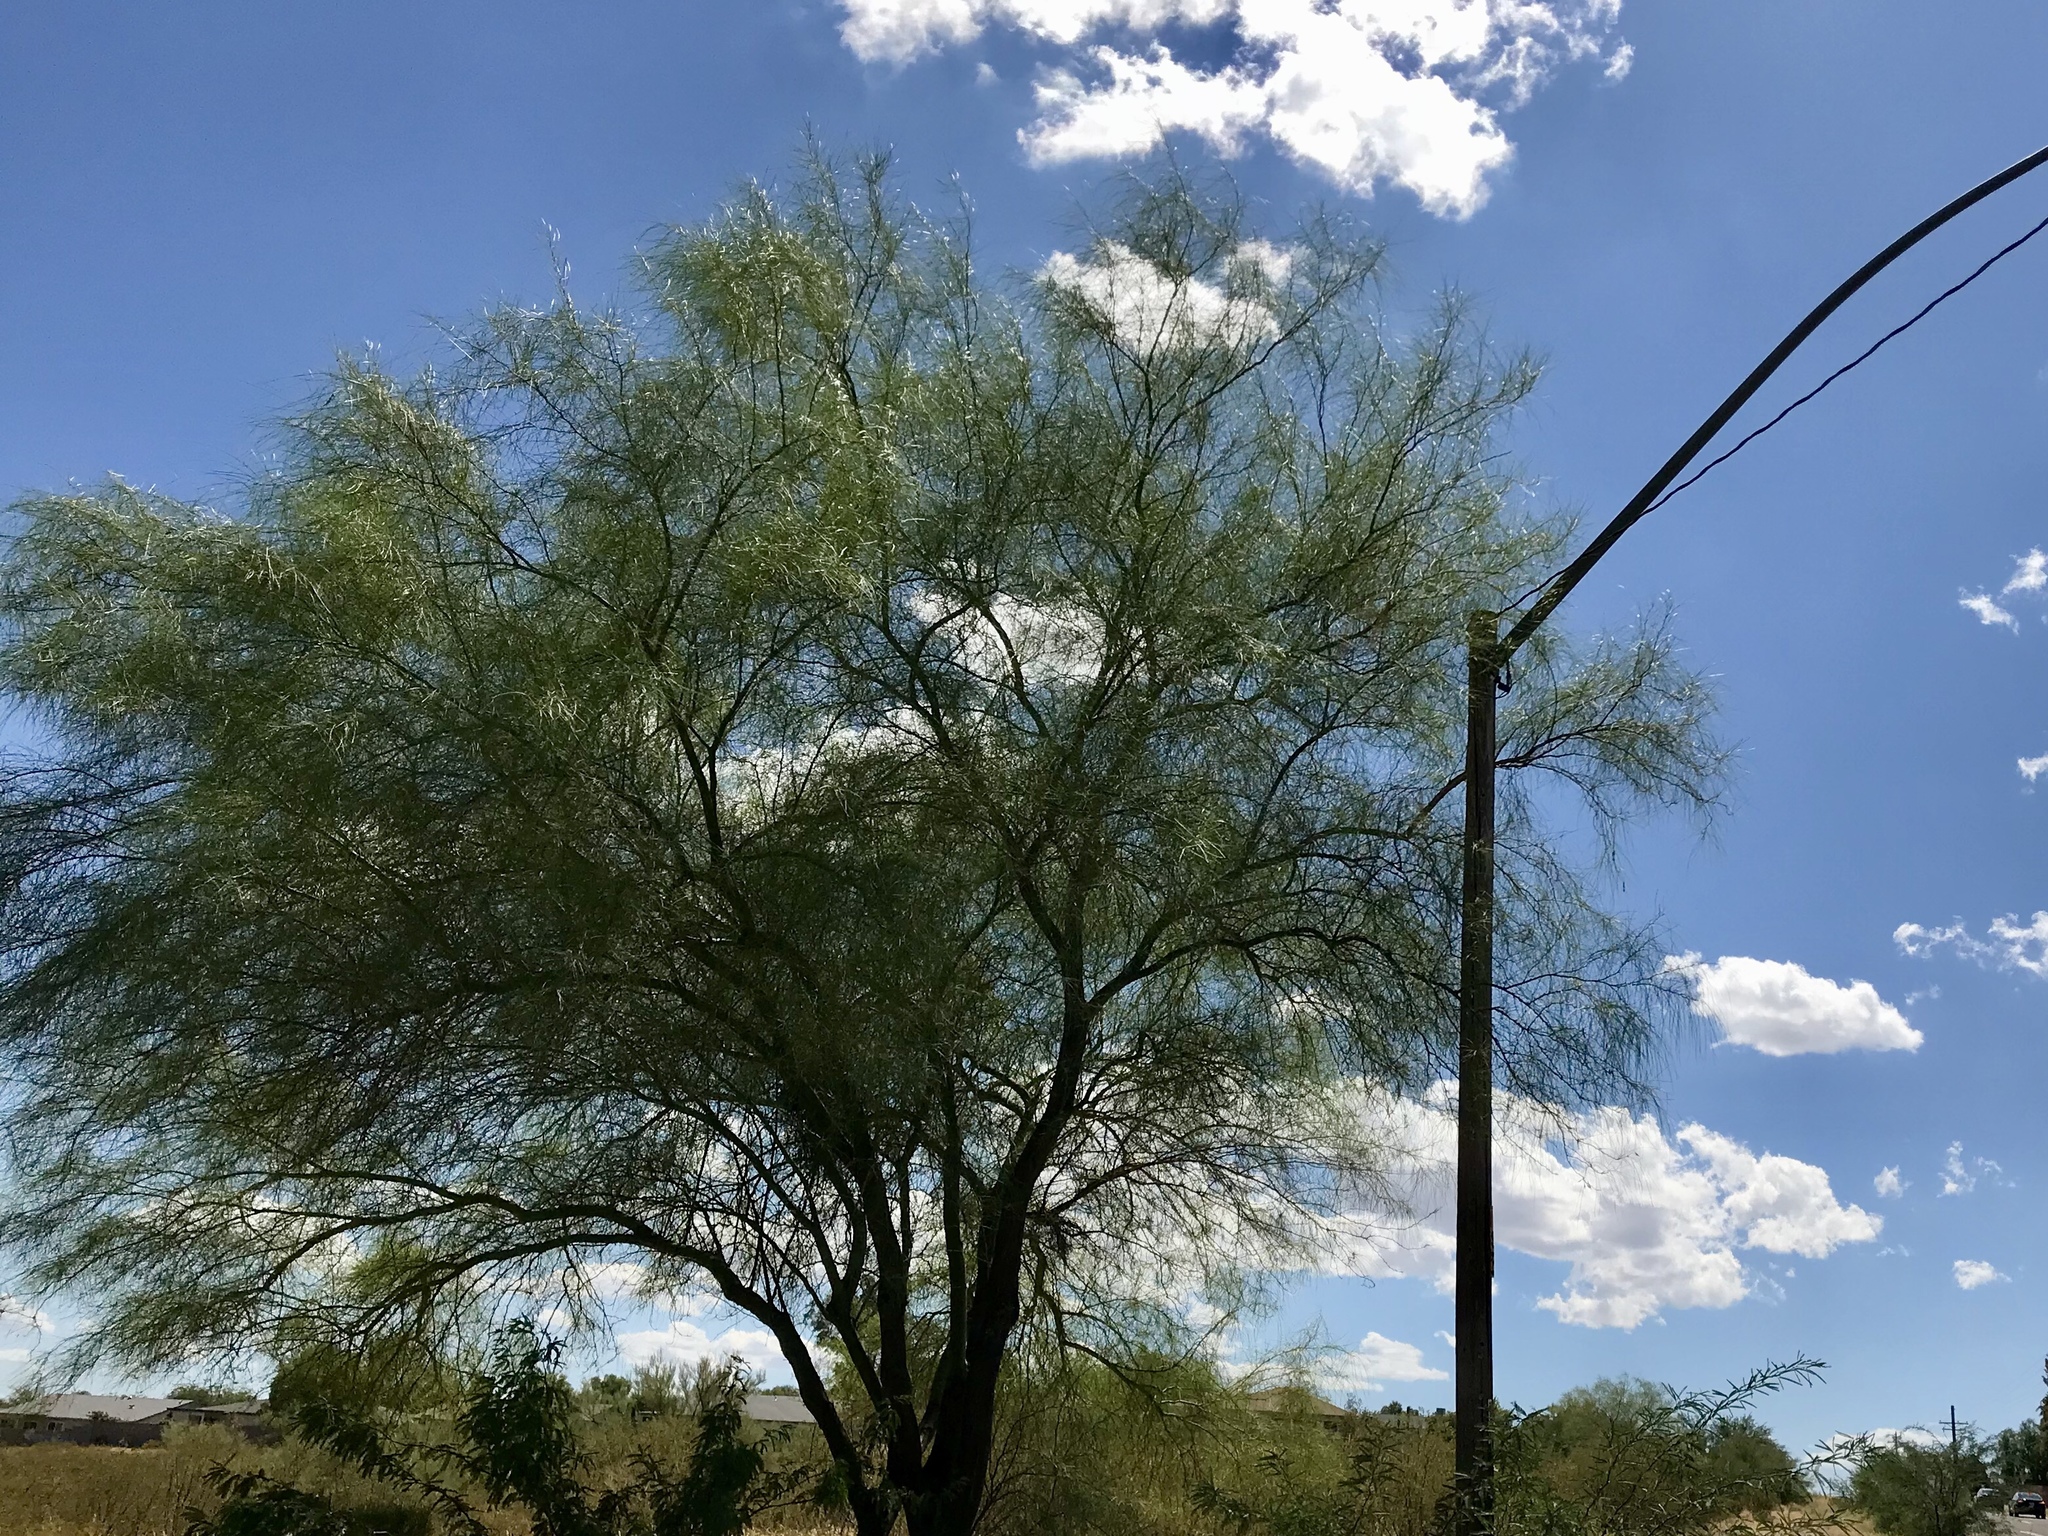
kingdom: Plantae
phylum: Tracheophyta
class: Magnoliopsida
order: Fabales
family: Fabaceae
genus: Parkinsonia
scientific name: Parkinsonia aculeata
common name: Jerusalem thorn
